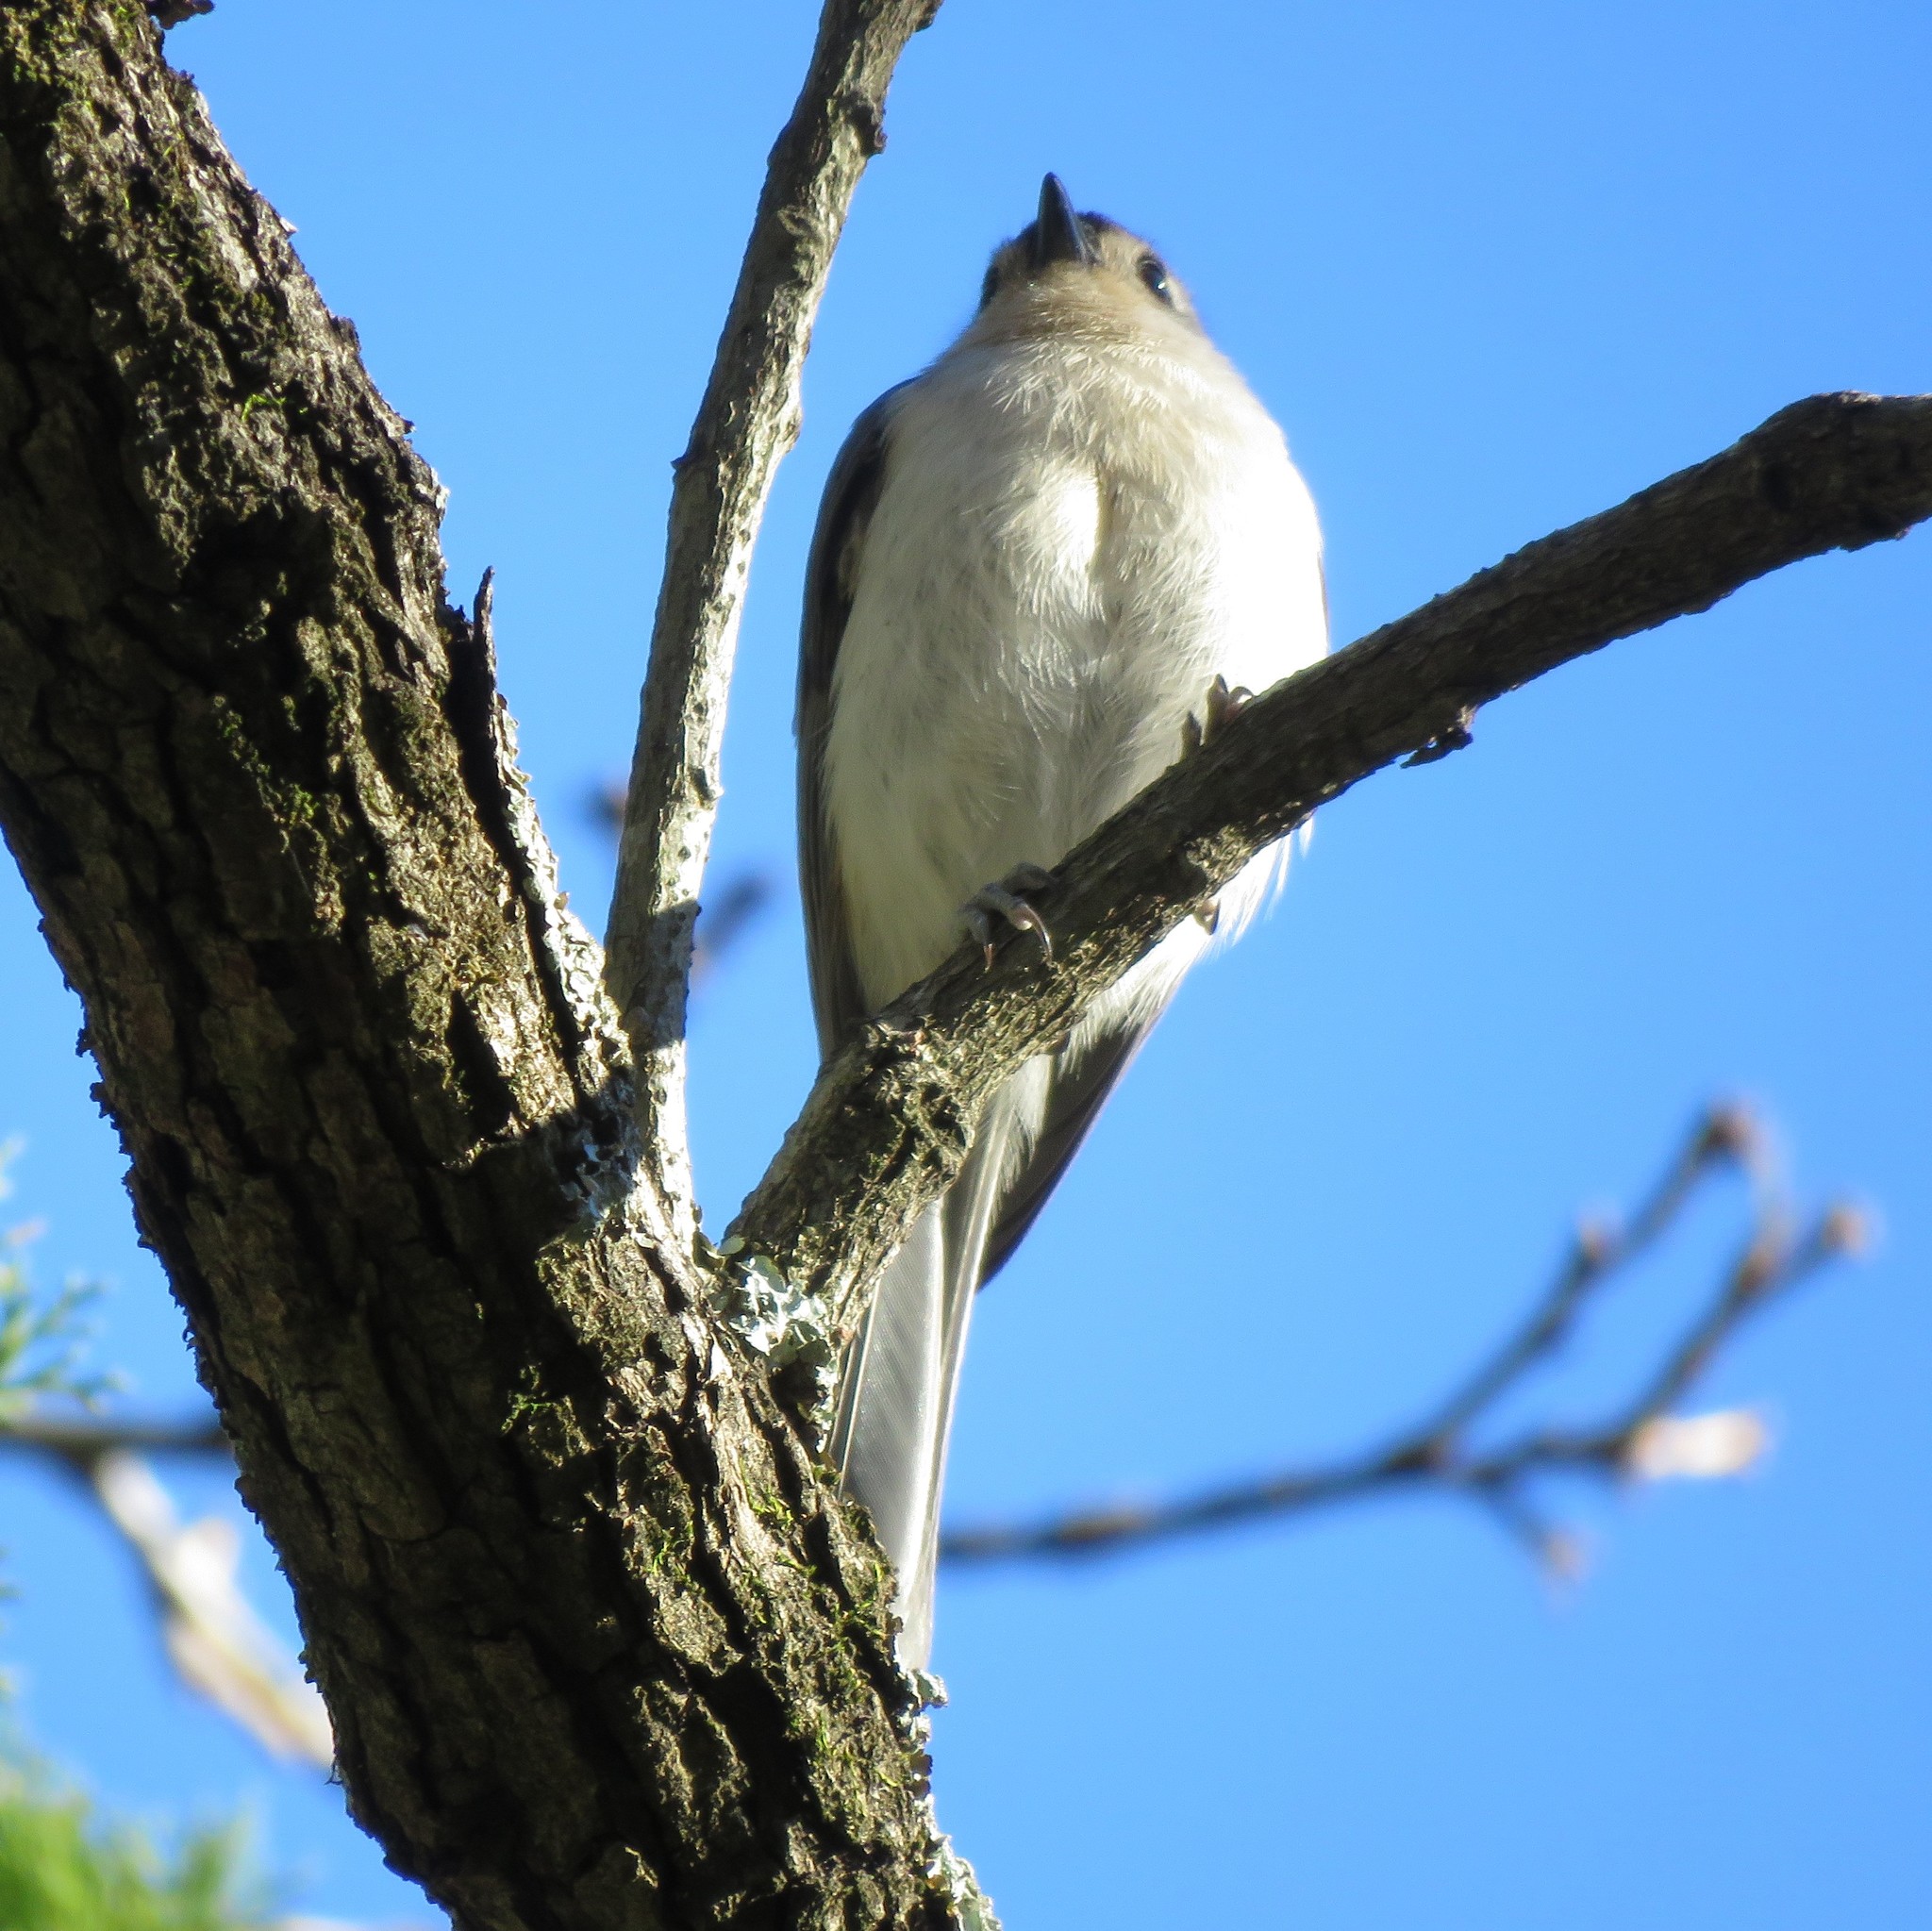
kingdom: Animalia
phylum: Chordata
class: Aves
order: Passeriformes
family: Paridae
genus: Baeolophus
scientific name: Baeolophus bicolor
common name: Tufted titmouse
